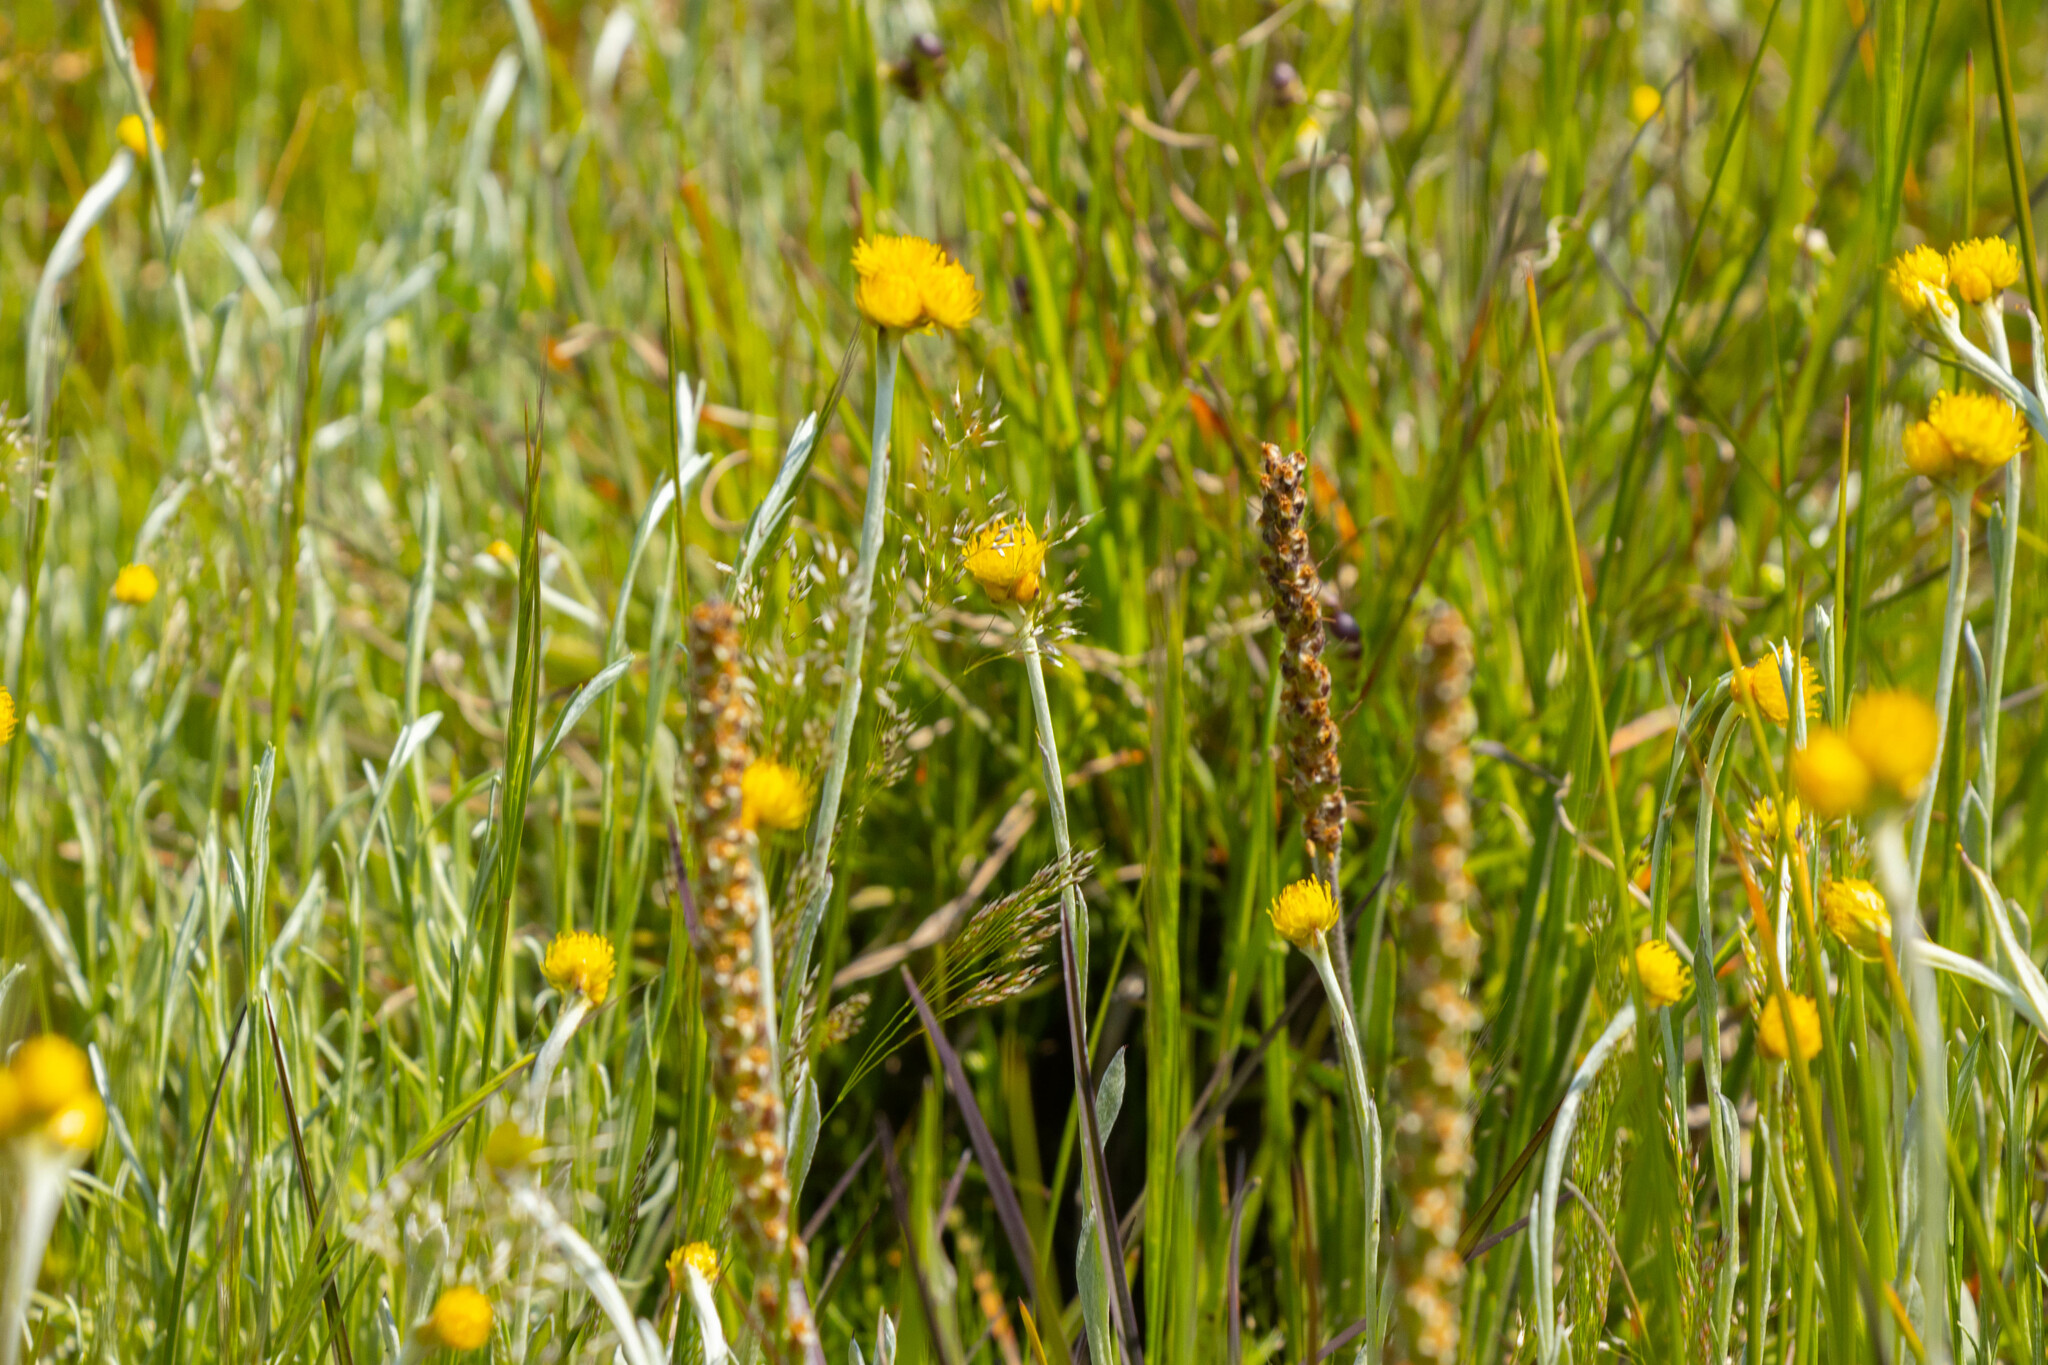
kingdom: Plantae
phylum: Tracheophyta
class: Magnoliopsida
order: Asterales
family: Asteraceae
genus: Chrysocephalum
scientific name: Chrysocephalum apiculatum
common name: Common everlasting
